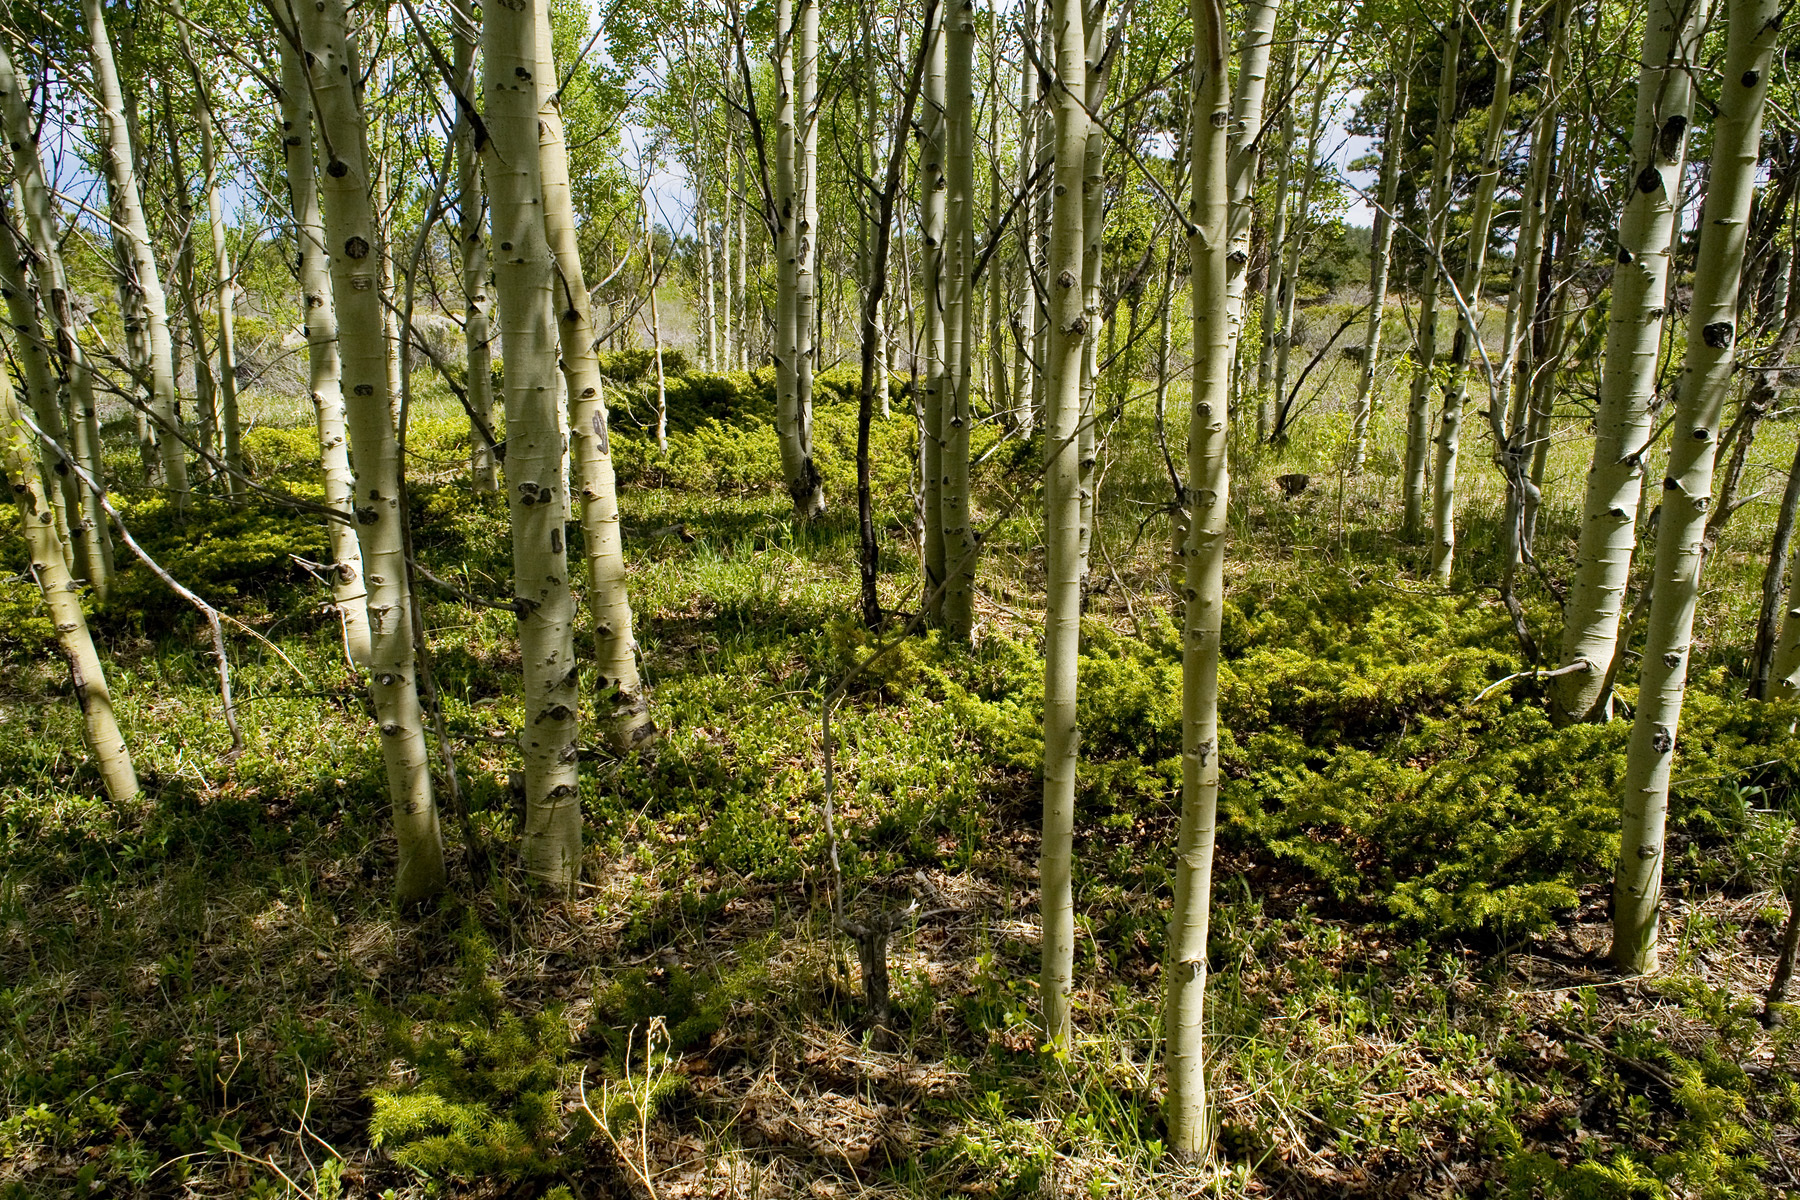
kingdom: Plantae
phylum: Tracheophyta
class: Magnoliopsida
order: Malpighiales
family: Salicaceae
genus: Populus
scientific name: Populus tremuloides
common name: Quaking aspen
